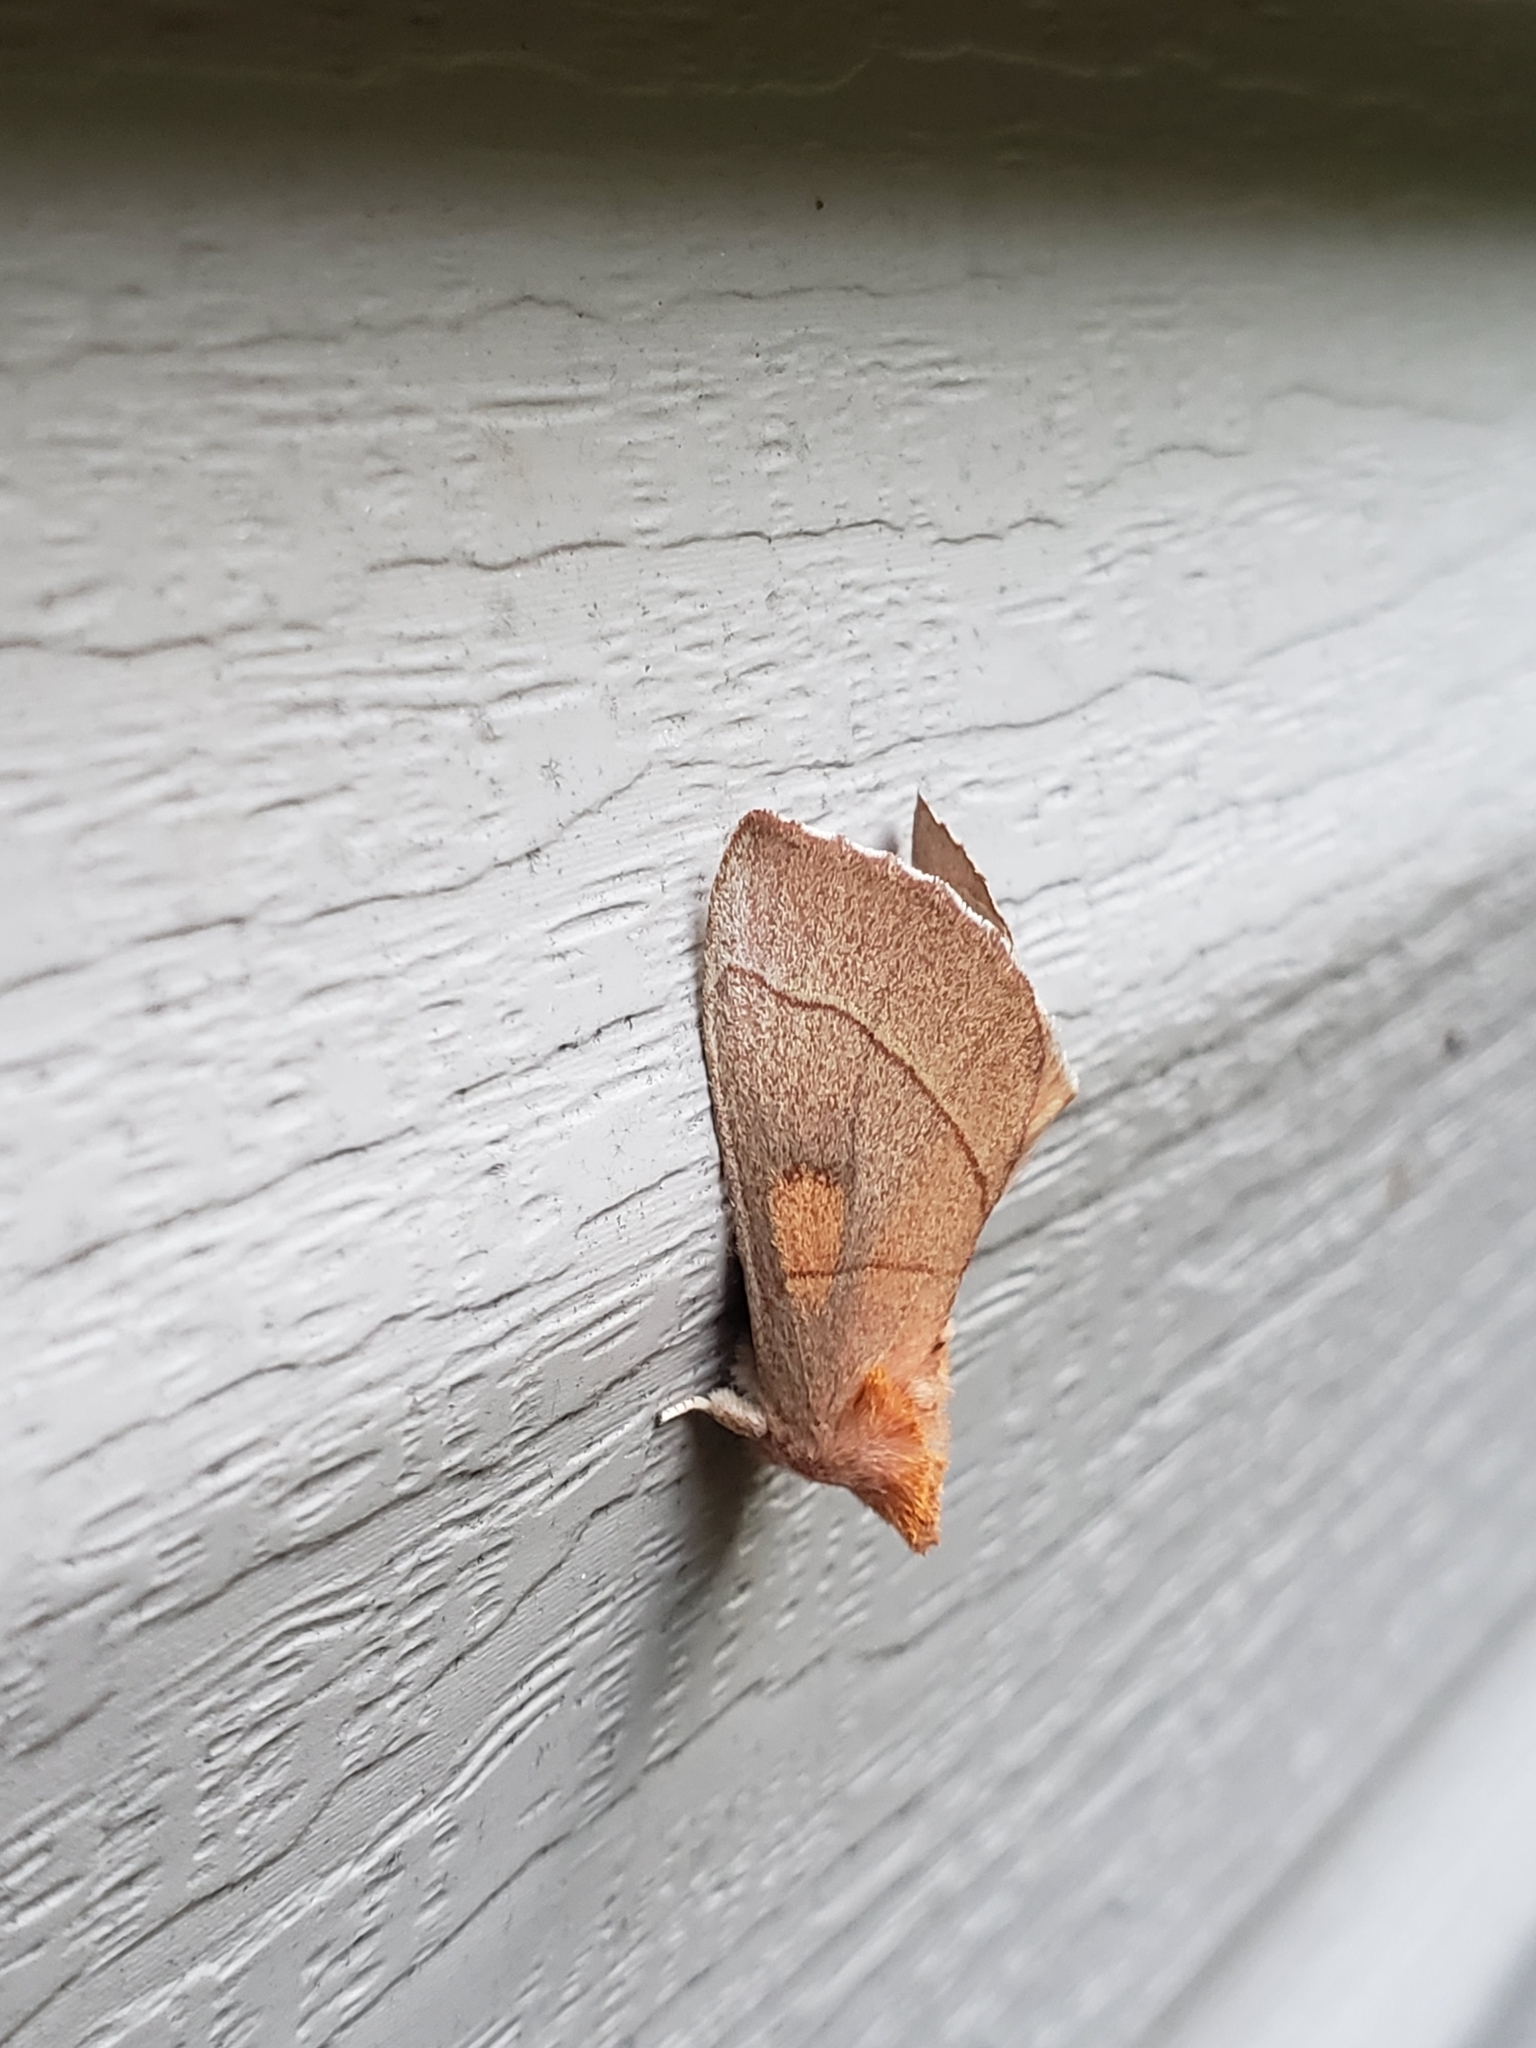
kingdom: Animalia
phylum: Arthropoda
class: Insecta
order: Lepidoptera
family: Notodontidae
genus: Nadata
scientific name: Nadata gibbosa
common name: White-dotted prominent
